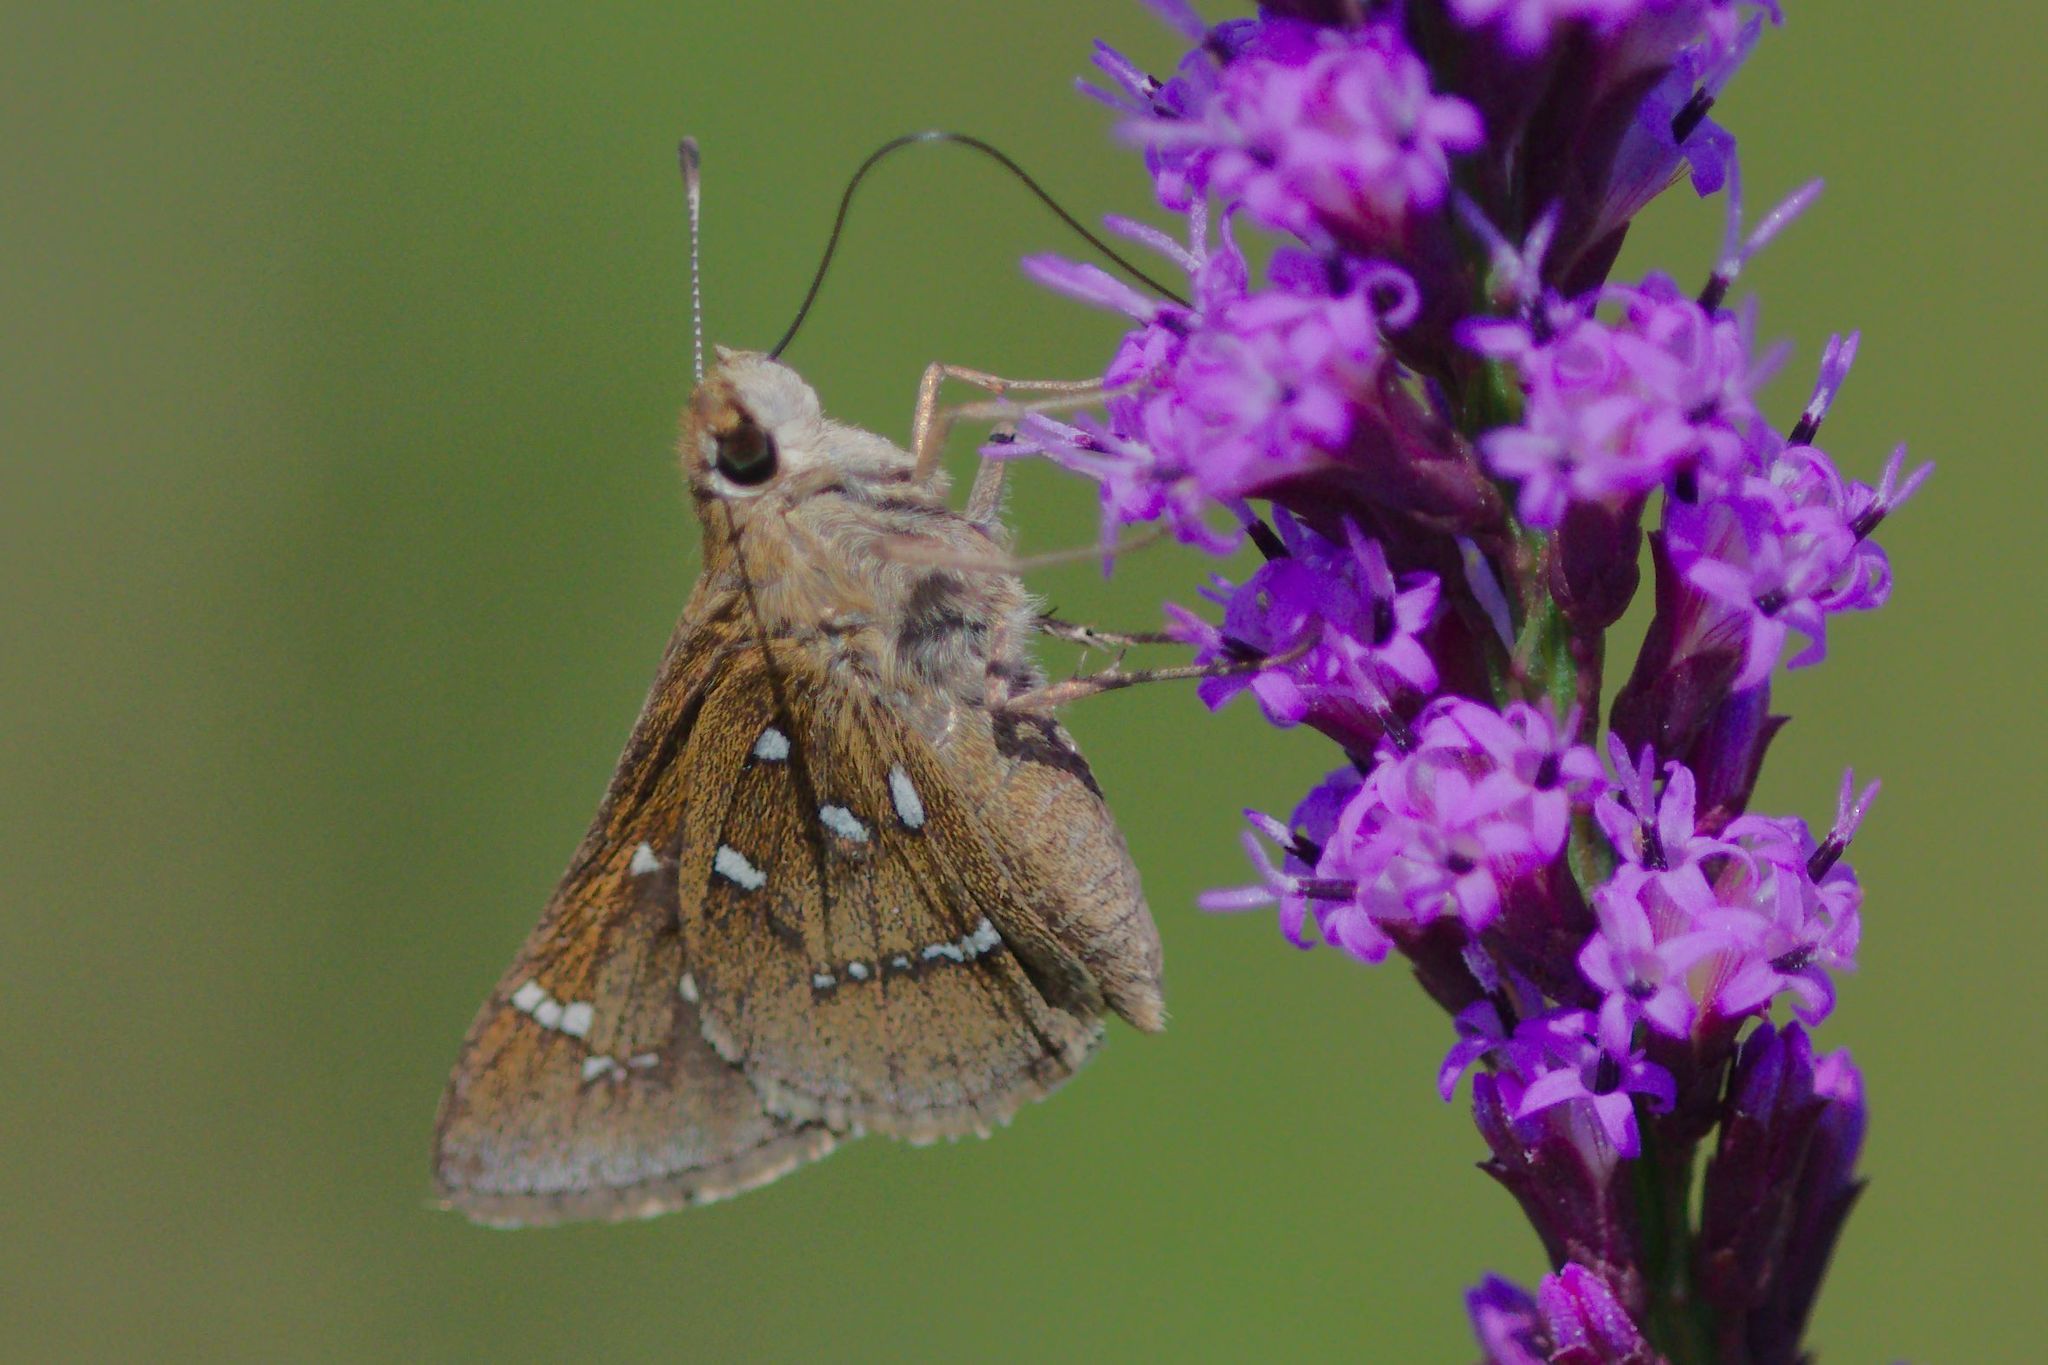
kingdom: Animalia
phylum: Arthropoda
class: Insecta
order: Lepidoptera
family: Hesperiidae
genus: Atrytonopsis
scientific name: Atrytonopsis loammi
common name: Loammi skipper
